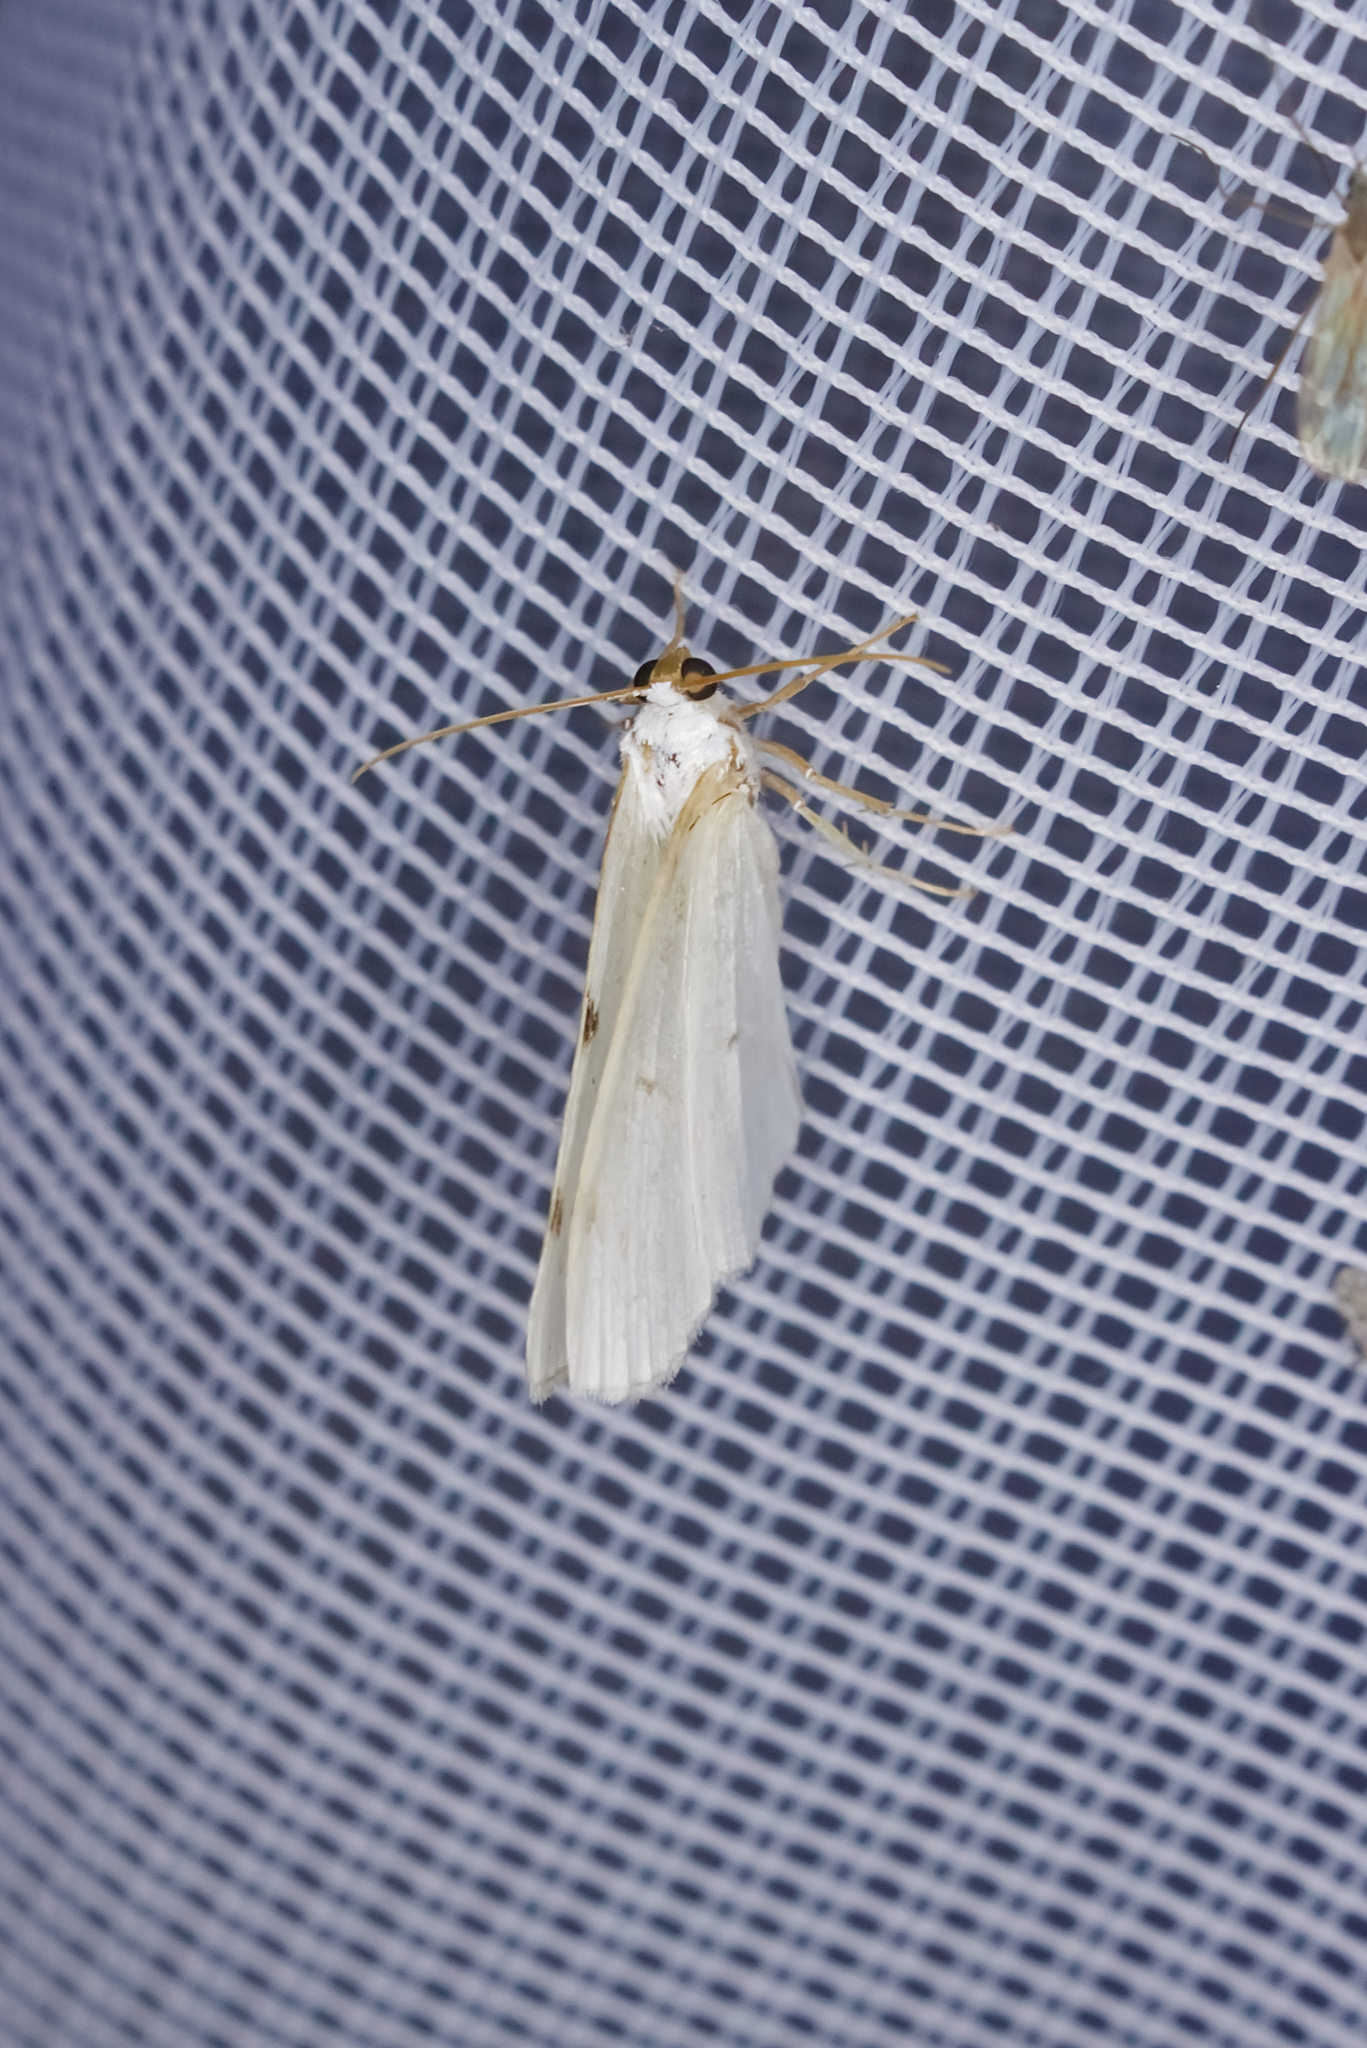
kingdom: Animalia
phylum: Arthropoda
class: Insecta
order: Lepidoptera
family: Geometridae
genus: Lomographa
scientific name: Lomographa bimaculata
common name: White-pinion spotted
